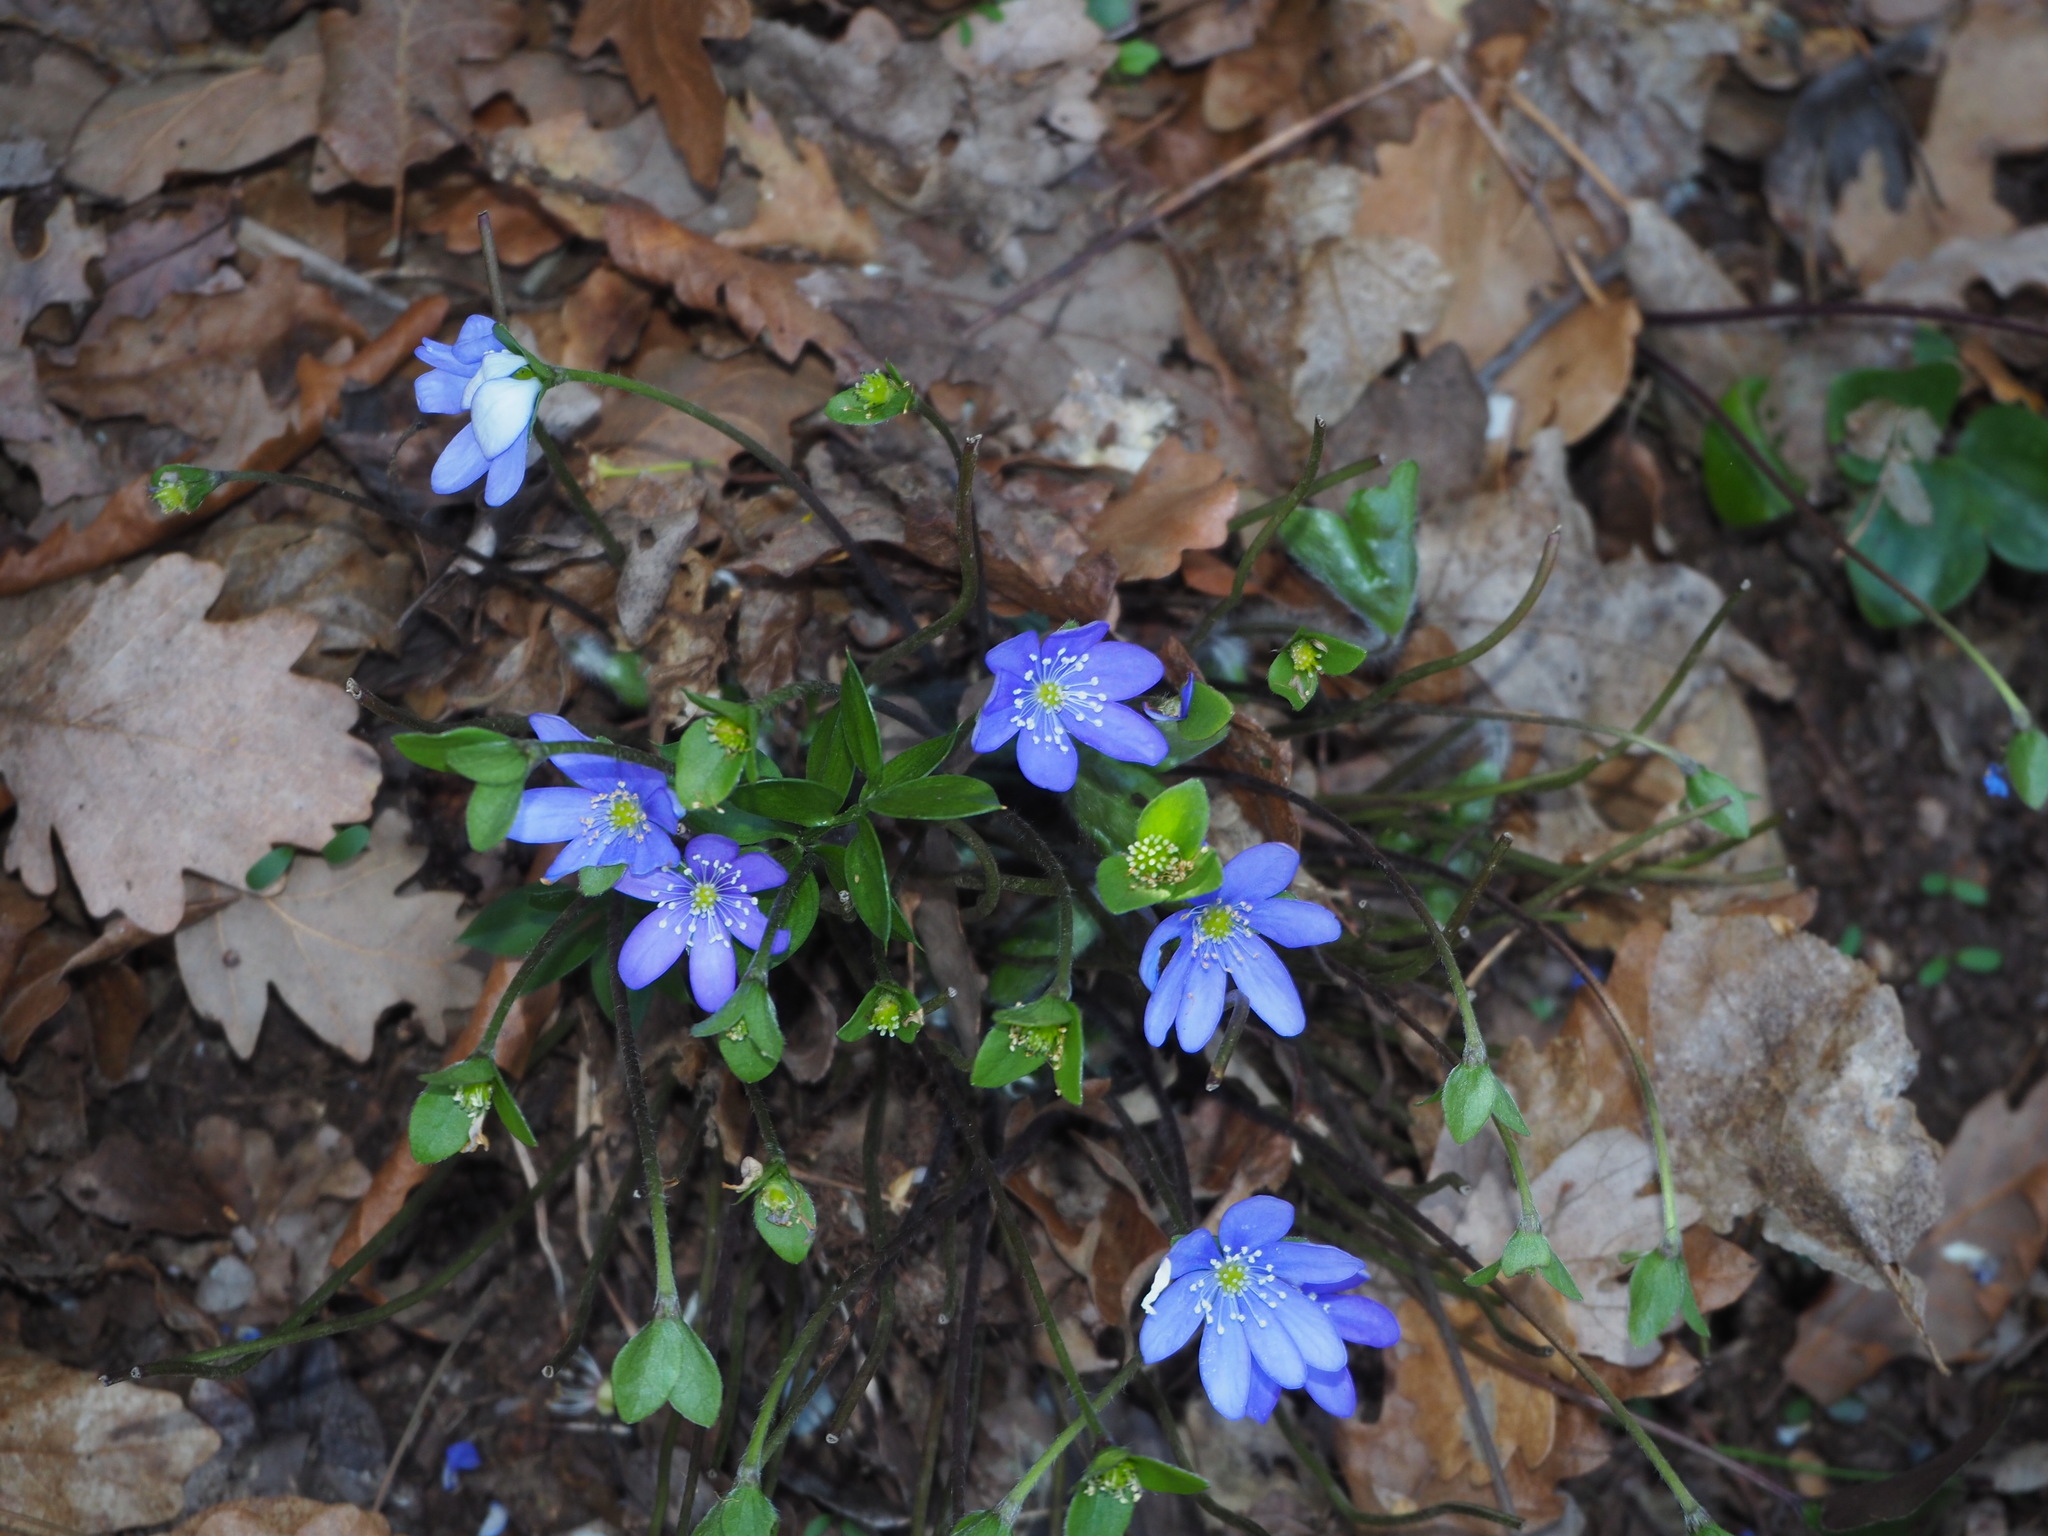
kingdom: Plantae
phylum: Tracheophyta
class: Magnoliopsida
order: Ranunculales
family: Ranunculaceae
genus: Hepatica
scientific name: Hepatica nobilis
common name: Liverleaf
